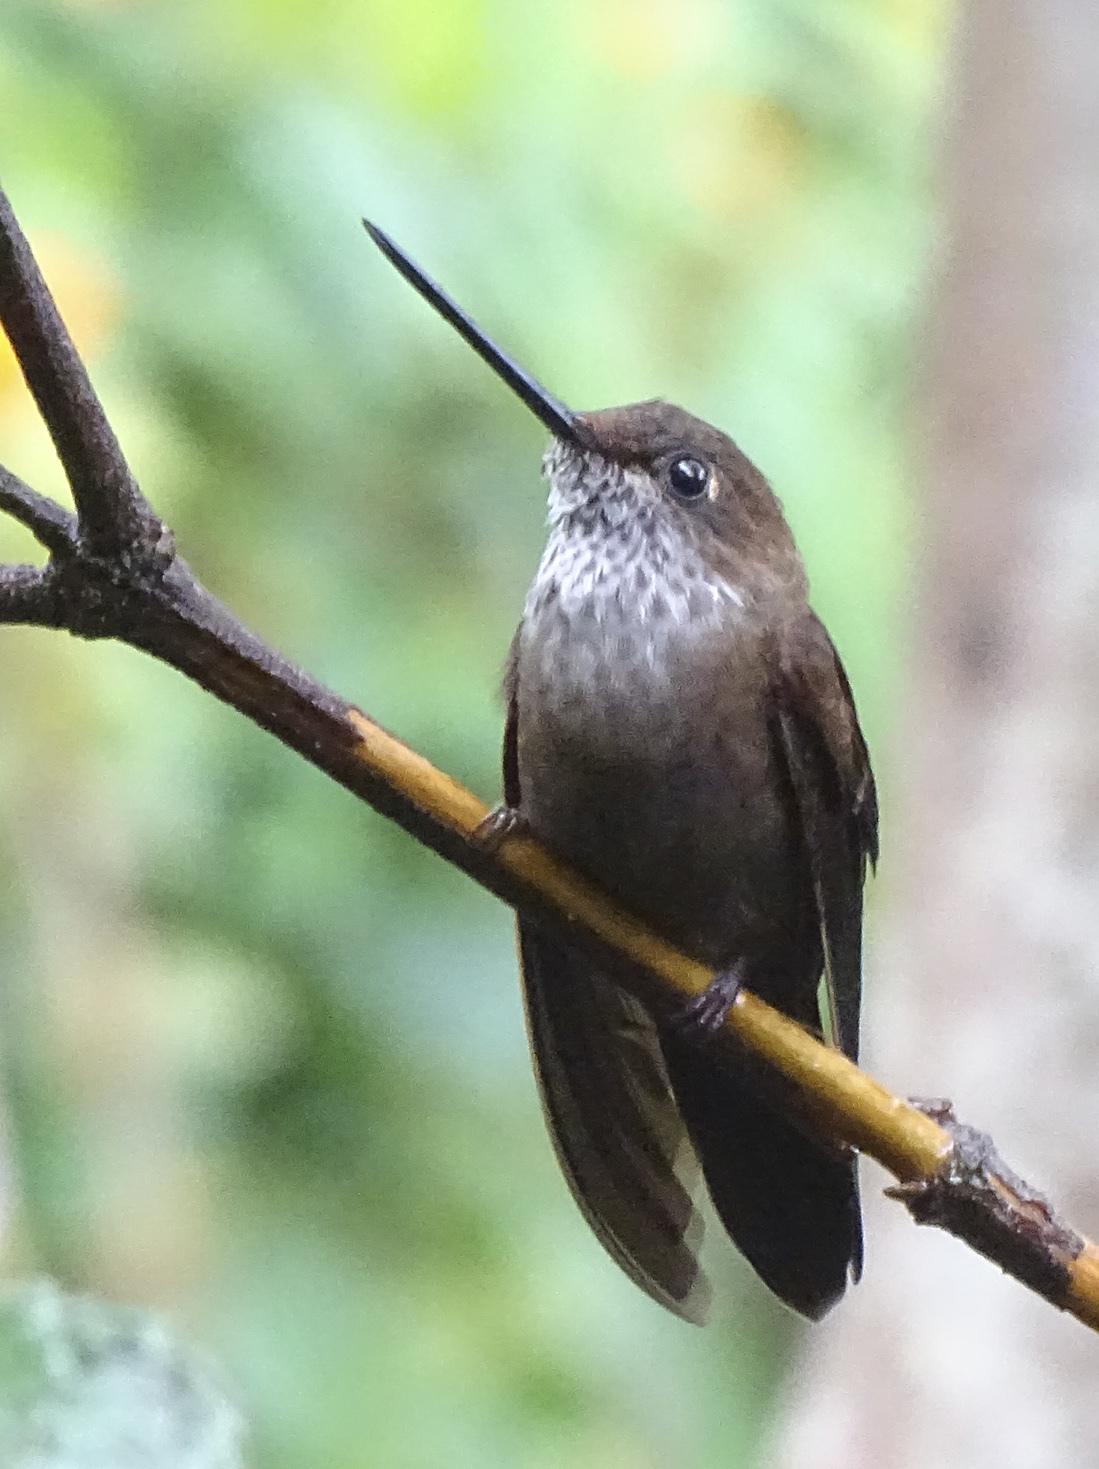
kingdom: Animalia
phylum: Chordata
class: Aves
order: Apodiformes
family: Trochilidae
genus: Coeligena
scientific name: Coeligena coeligena
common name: Bronzy inca
